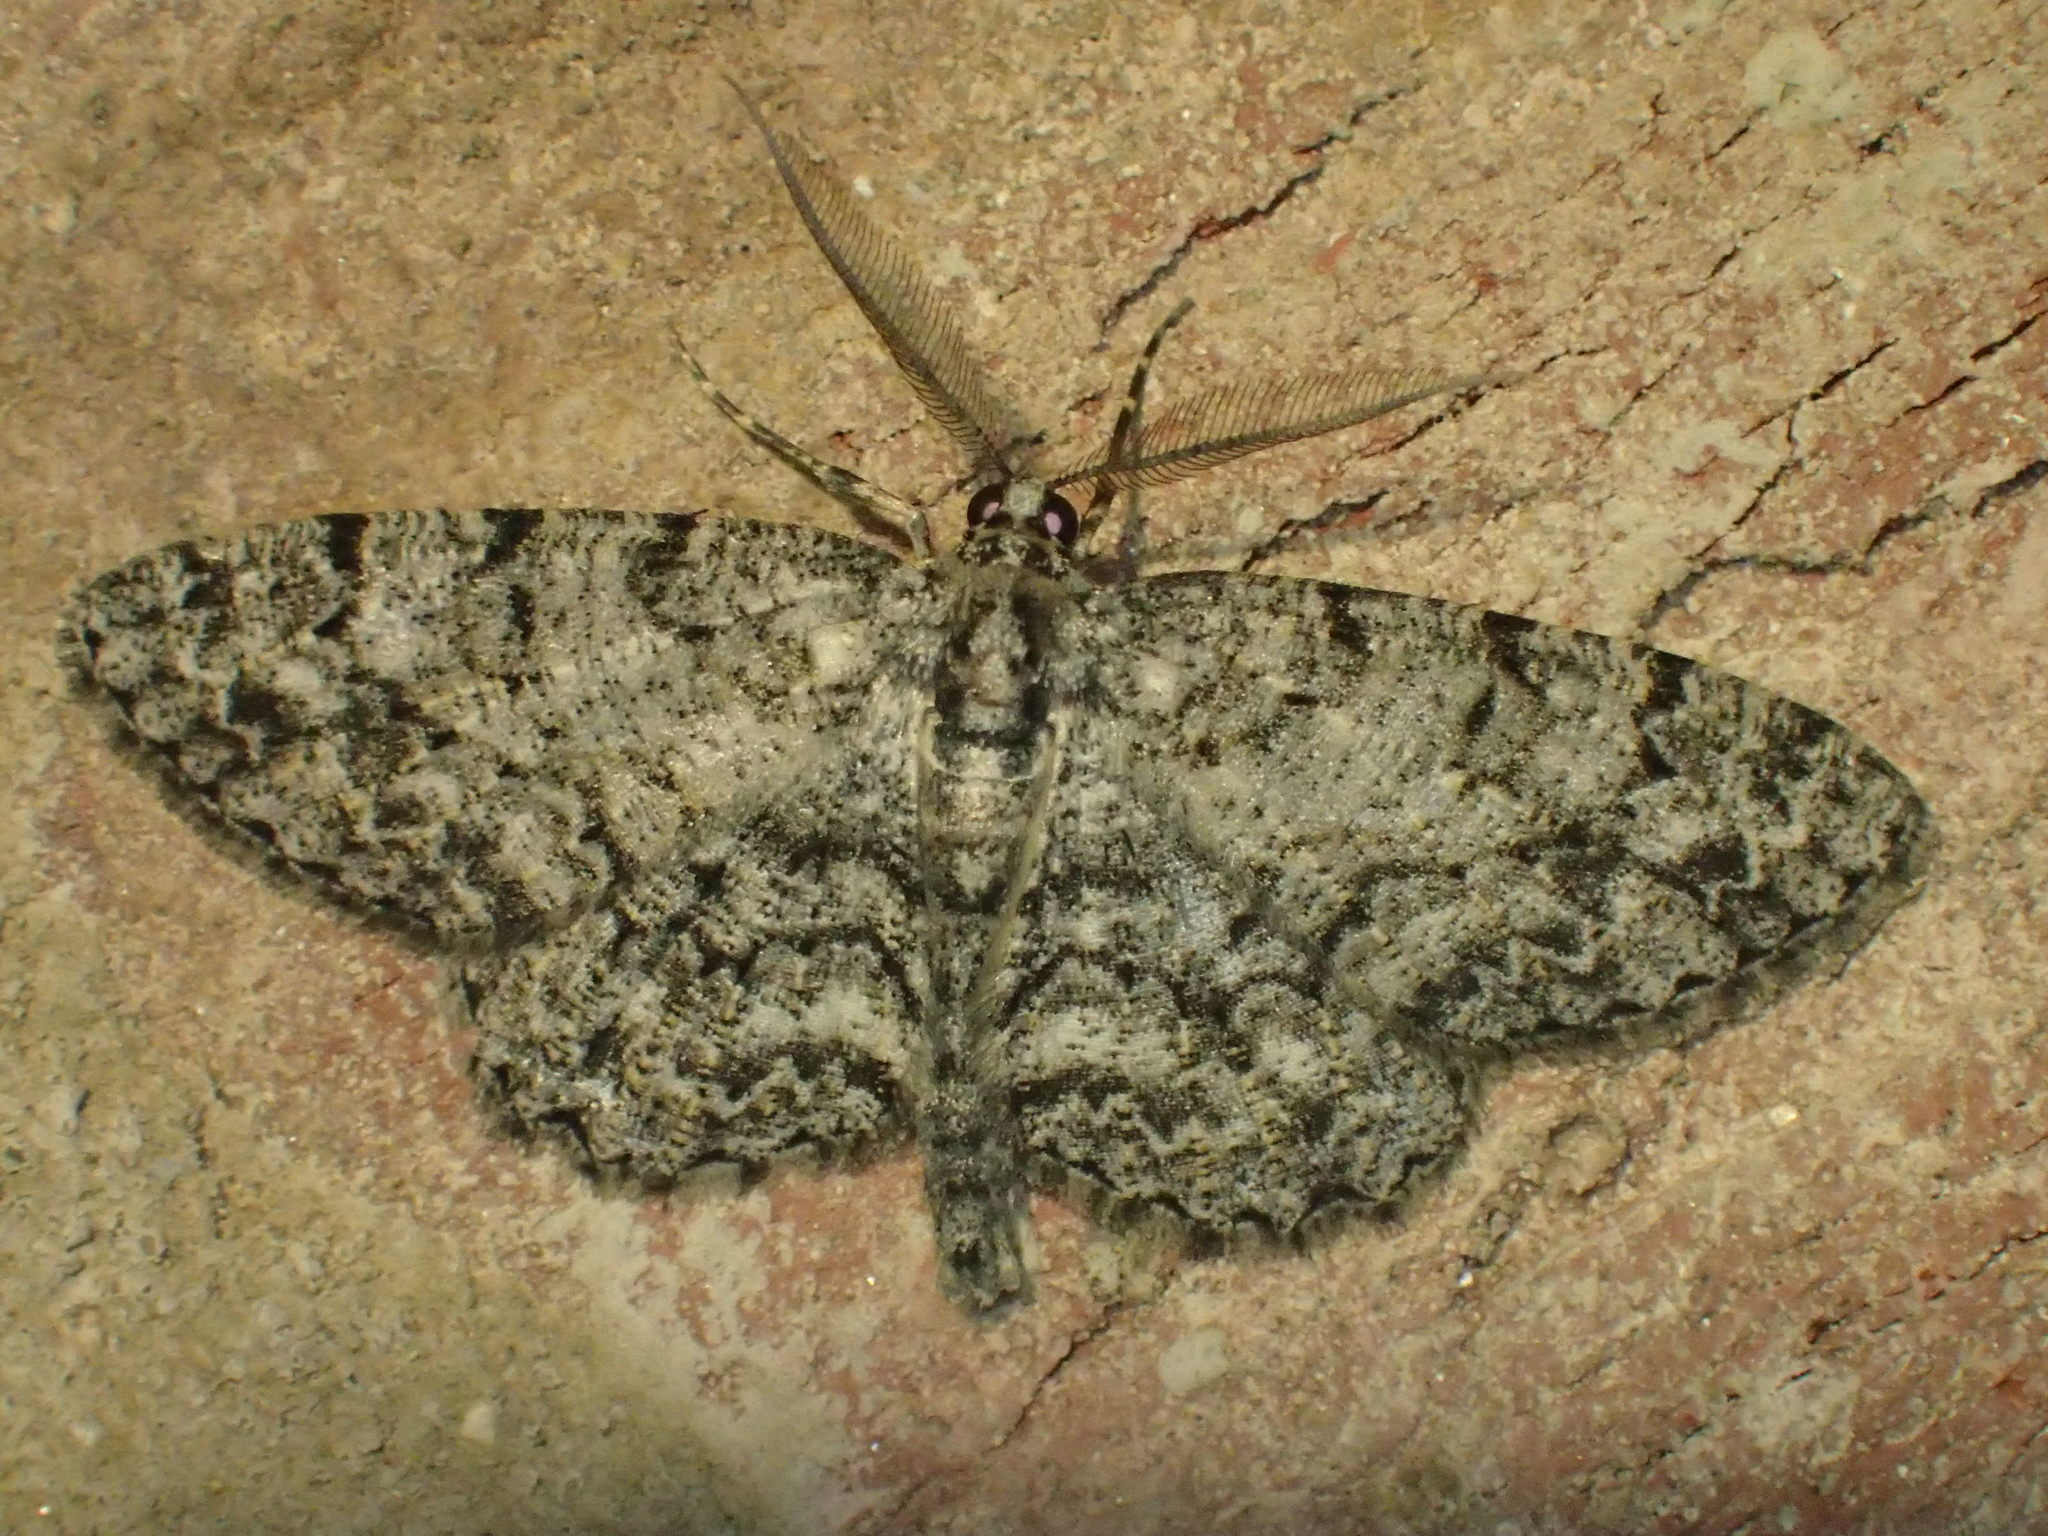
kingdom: Animalia
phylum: Arthropoda
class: Insecta
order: Lepidoptera
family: Geometridae
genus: Protoboarmia
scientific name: Protoboarmia porcelaria
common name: Porcelain gray
